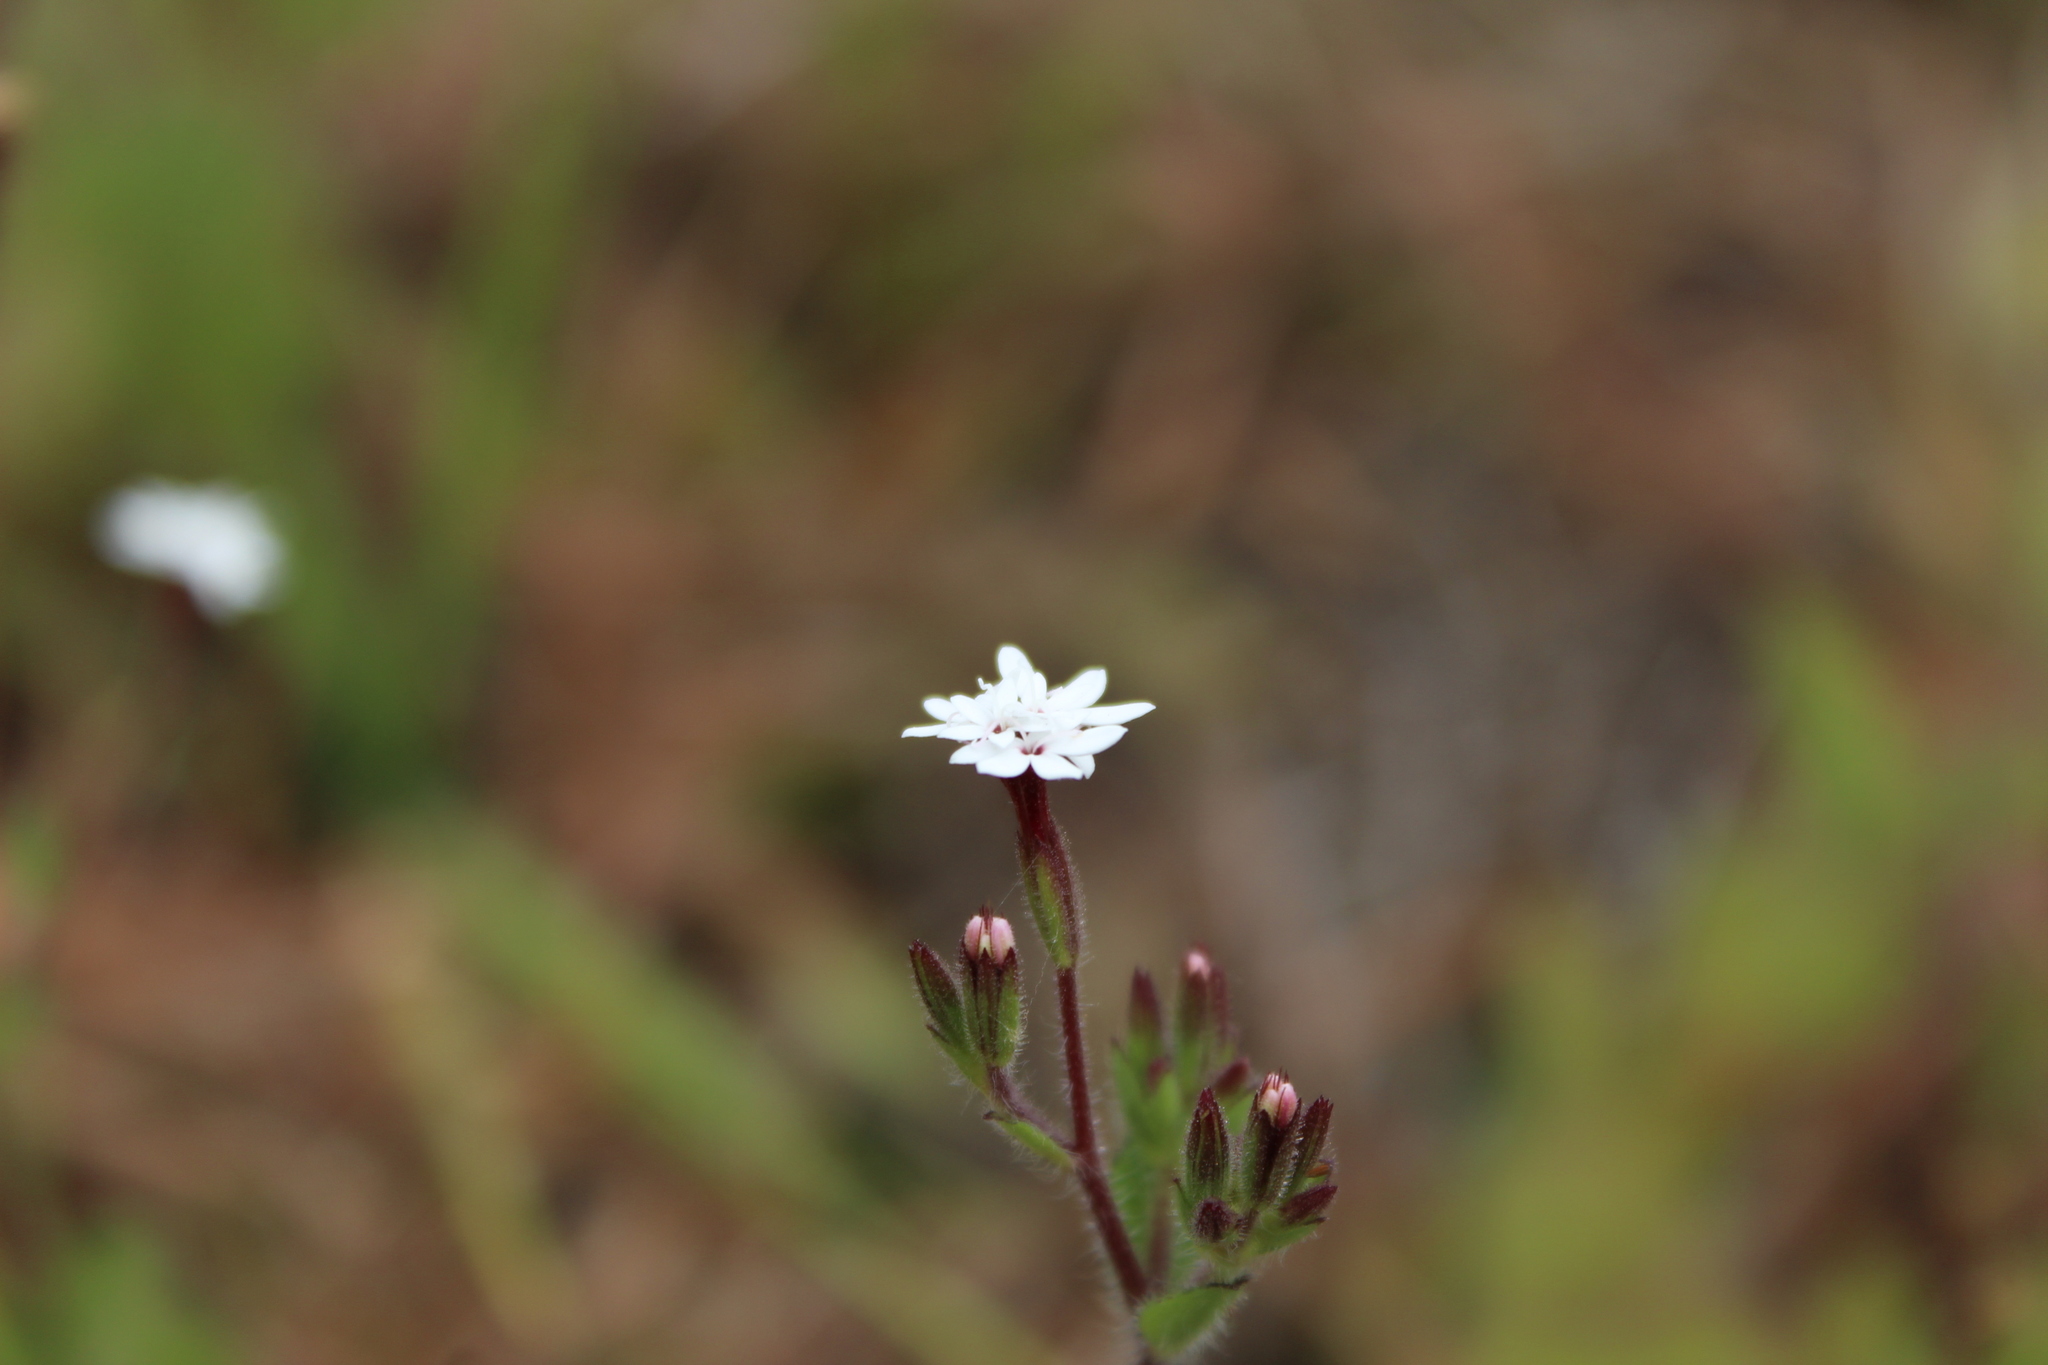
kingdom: Plantae
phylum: Tracheophyta
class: Magnoliopsida
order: Asterales
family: Asteraceae
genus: Stevia
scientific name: Stevia elatior
